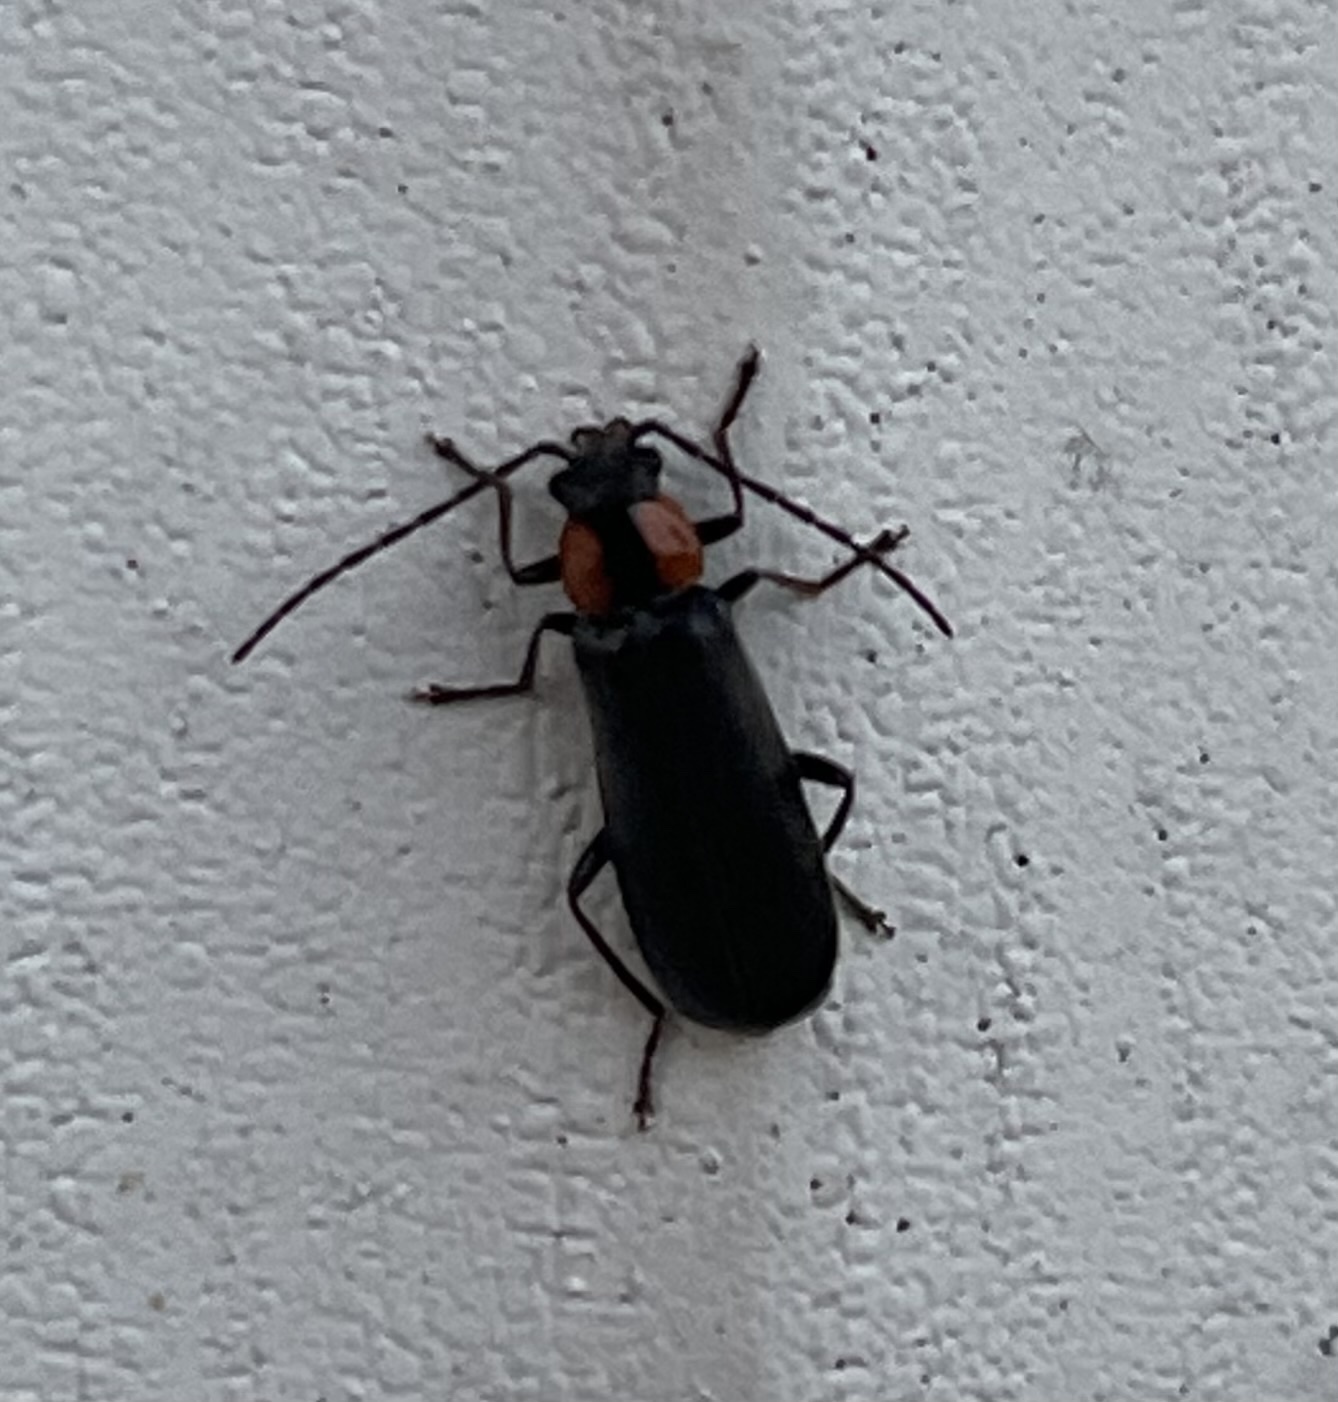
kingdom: Animalia
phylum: Arthropoda
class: Insecta
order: Coleoptera
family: Cantharidae
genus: Rhagonycha
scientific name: Rhagonycha lineola
